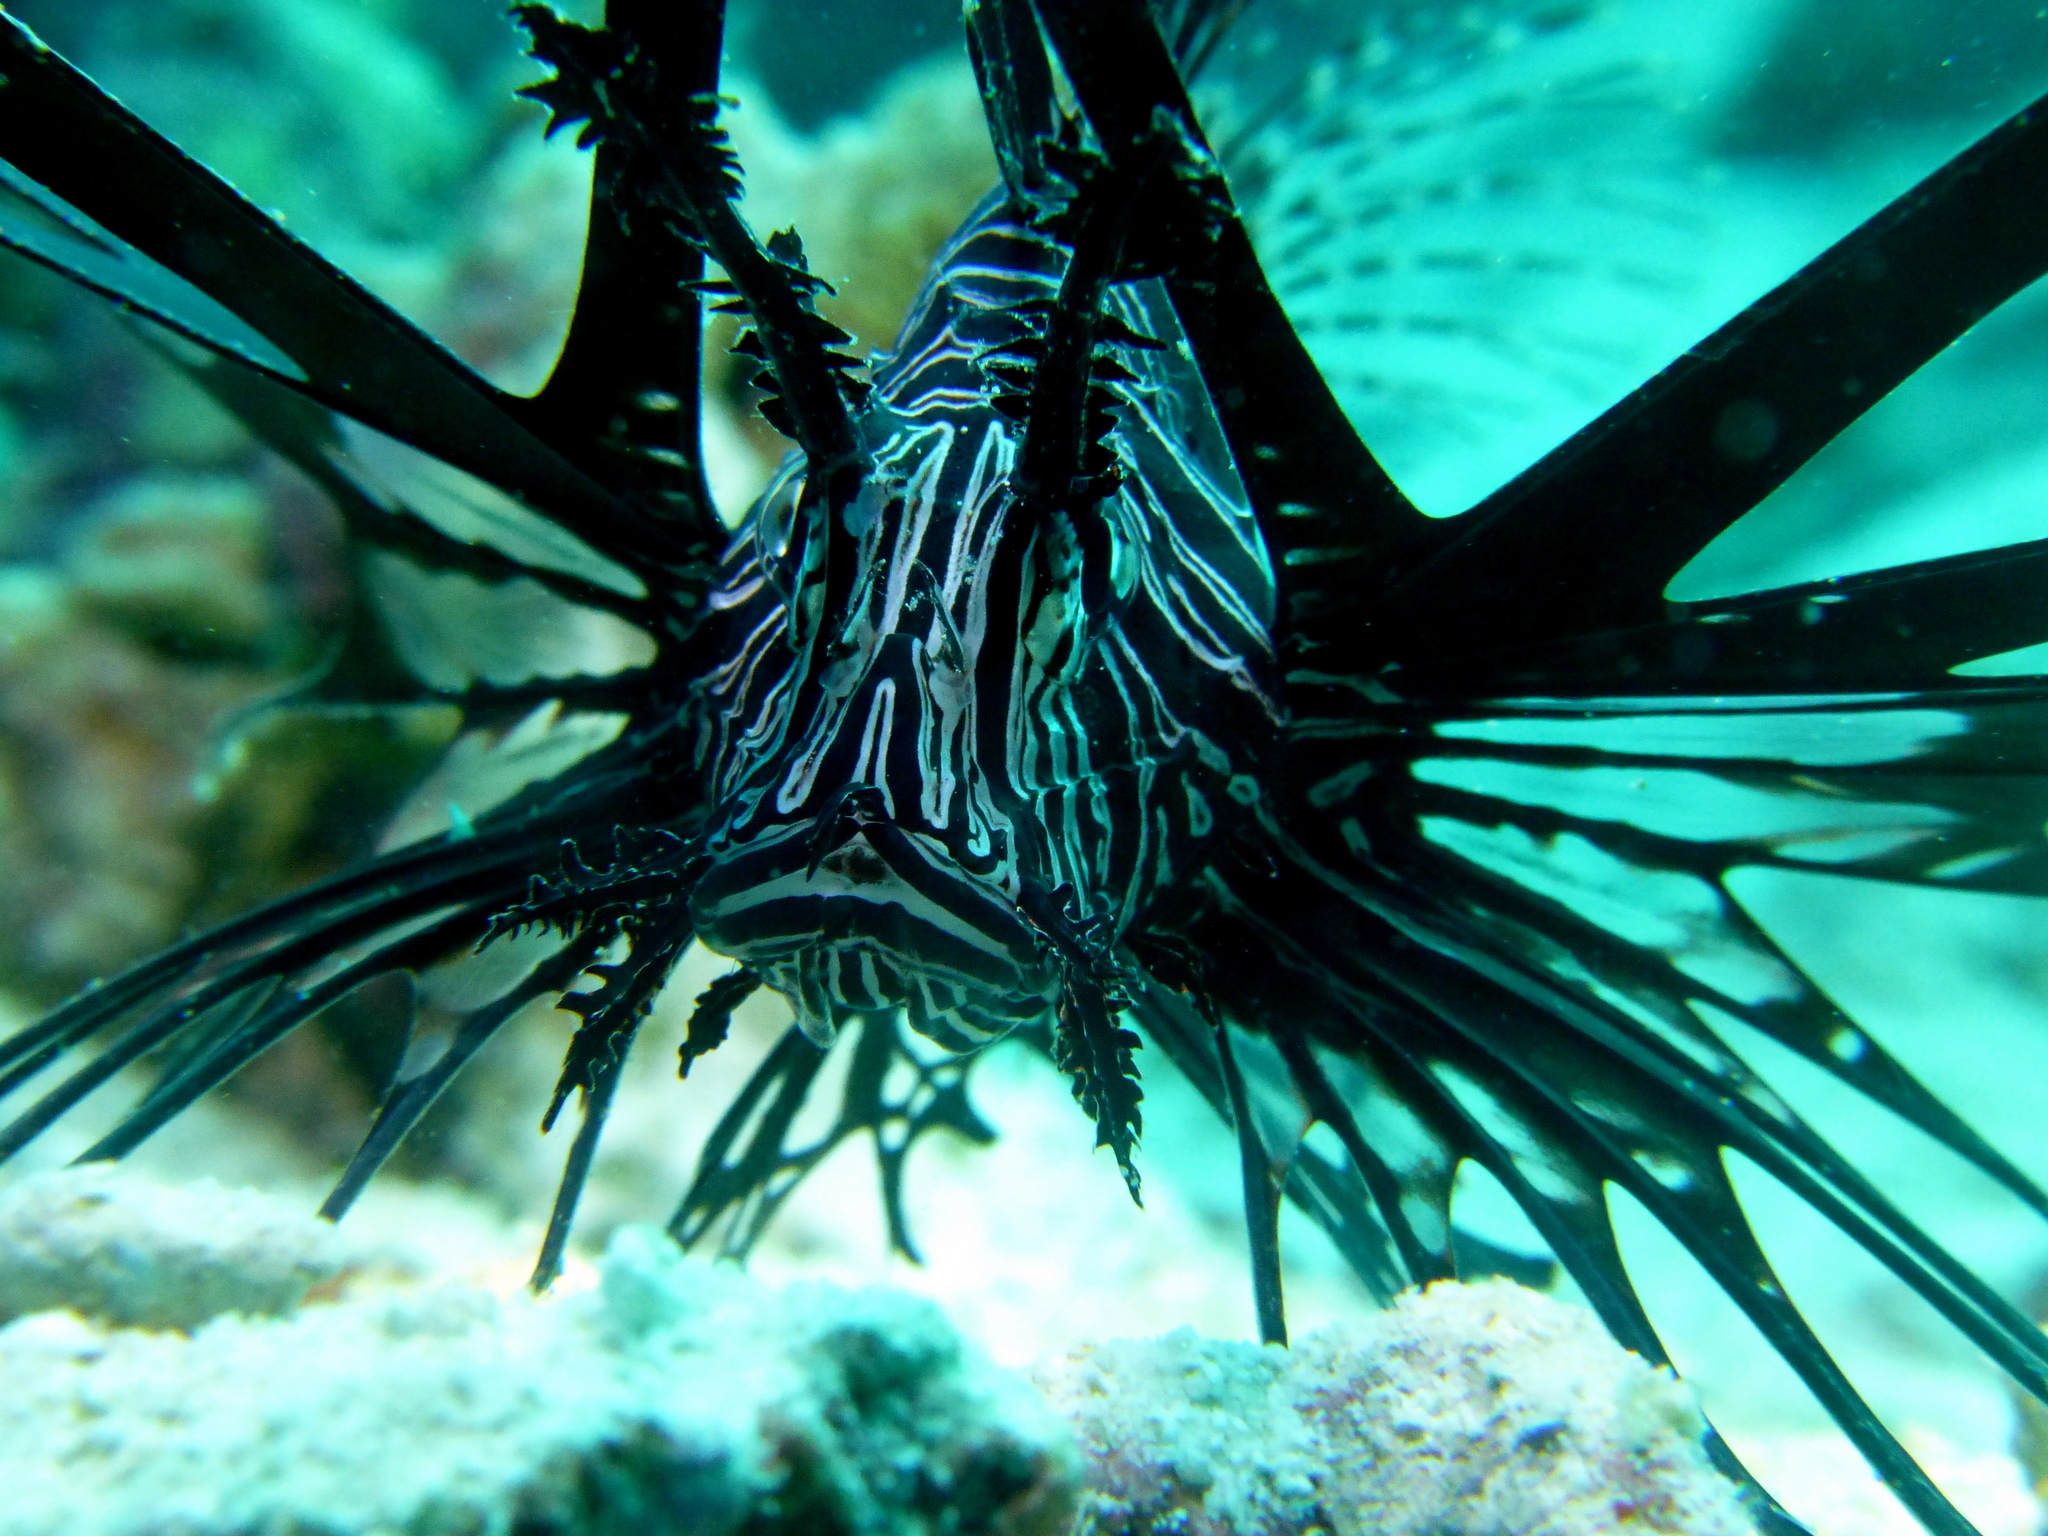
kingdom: Animalia
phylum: Chordata
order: Scorpaeniformes
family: Scorpaenidae
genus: Pterois
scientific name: Pterois volitans
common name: Lionfish
